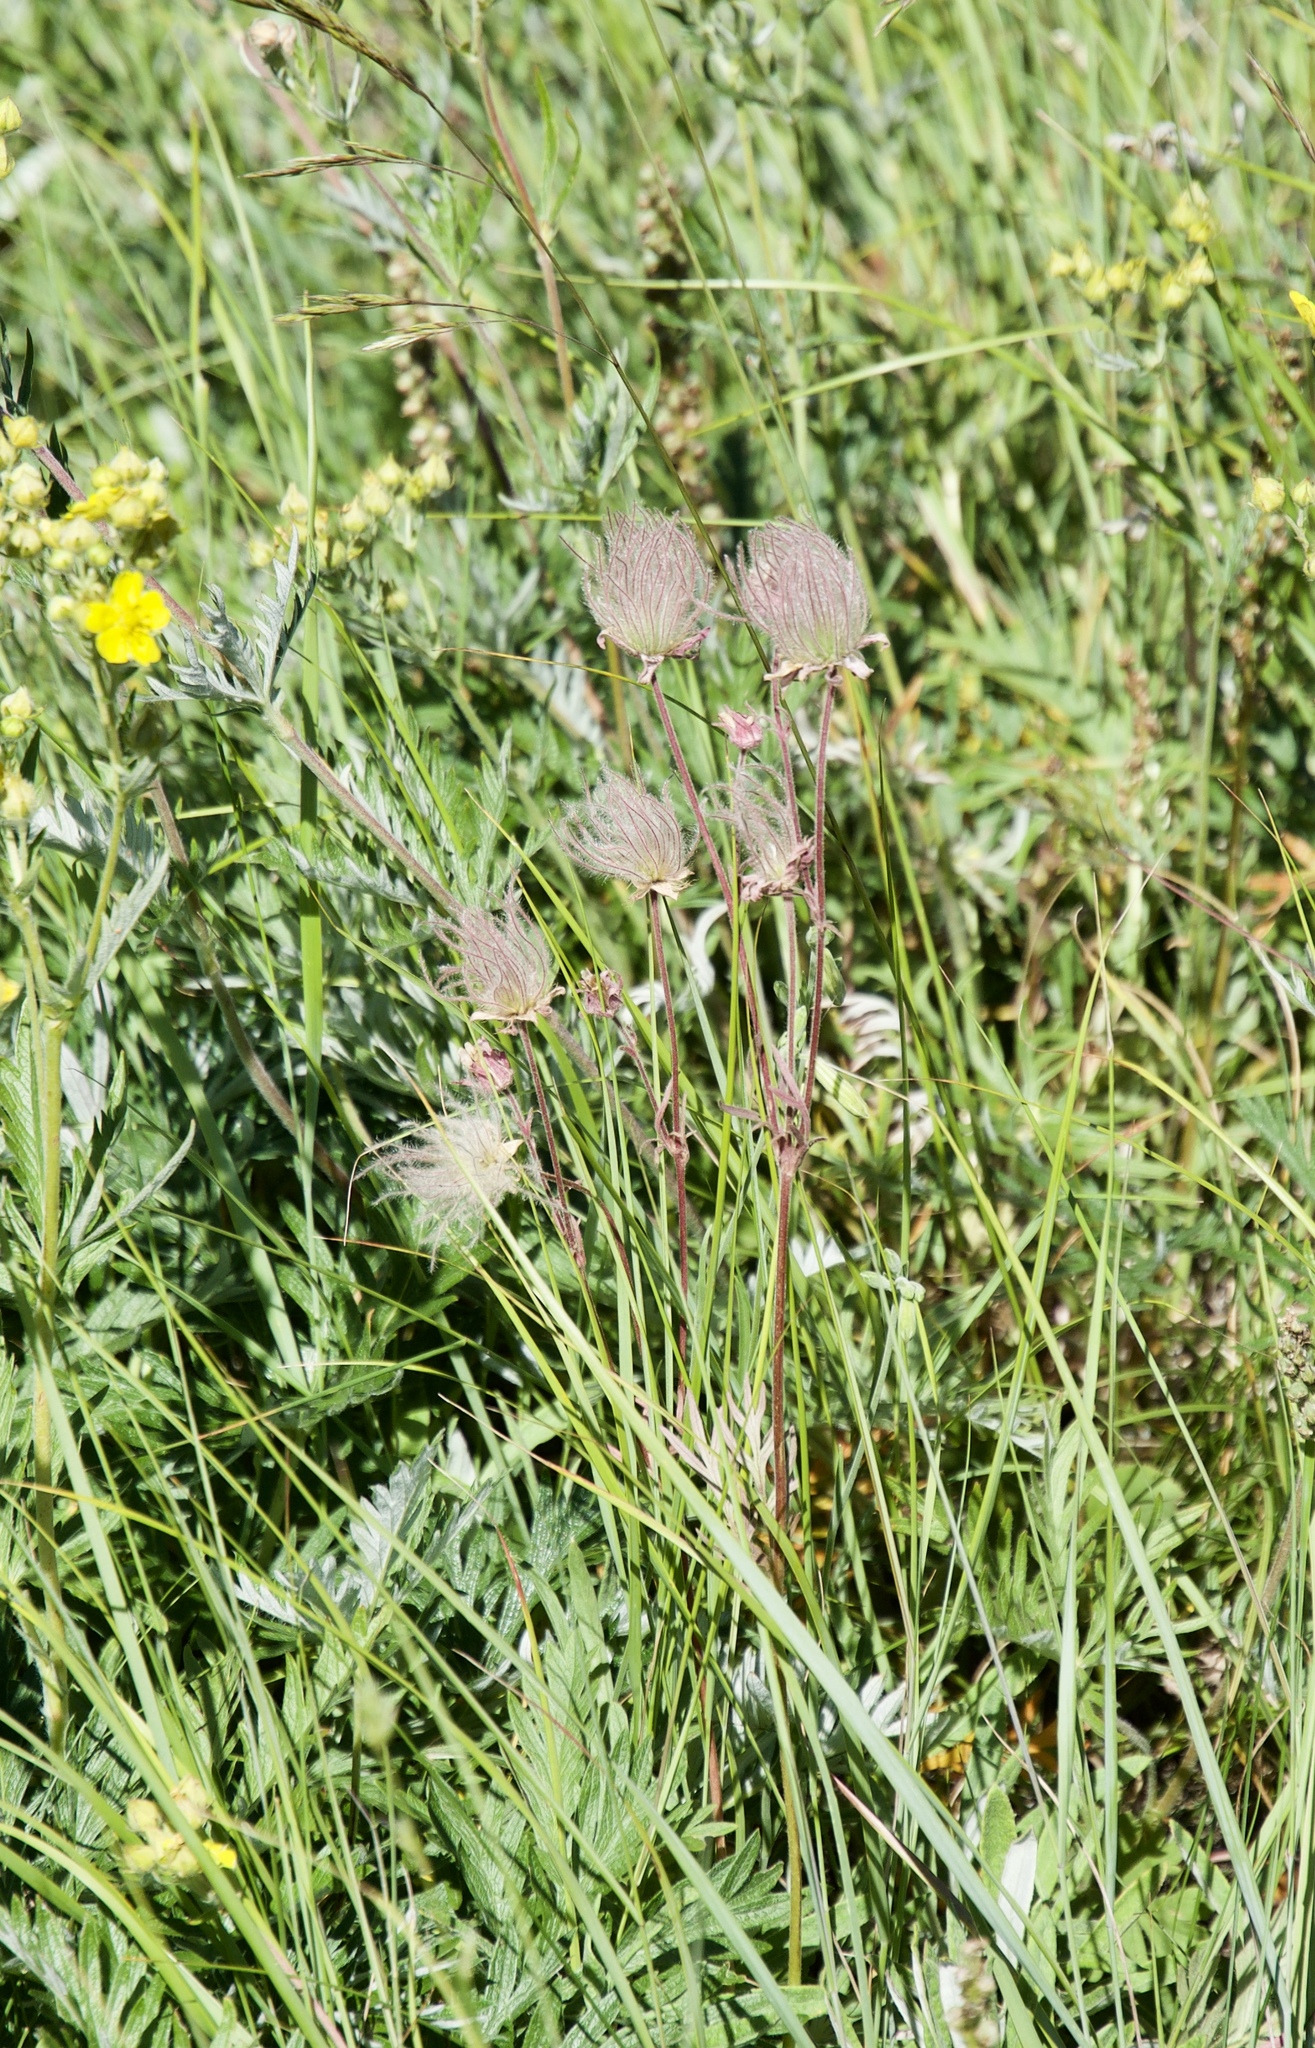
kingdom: Plantae
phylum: Tracheophyta
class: Magnoliopsida
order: Rosales
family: Rosaceae
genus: Geum
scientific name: Geum triflorum
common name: Old man's whiskers
